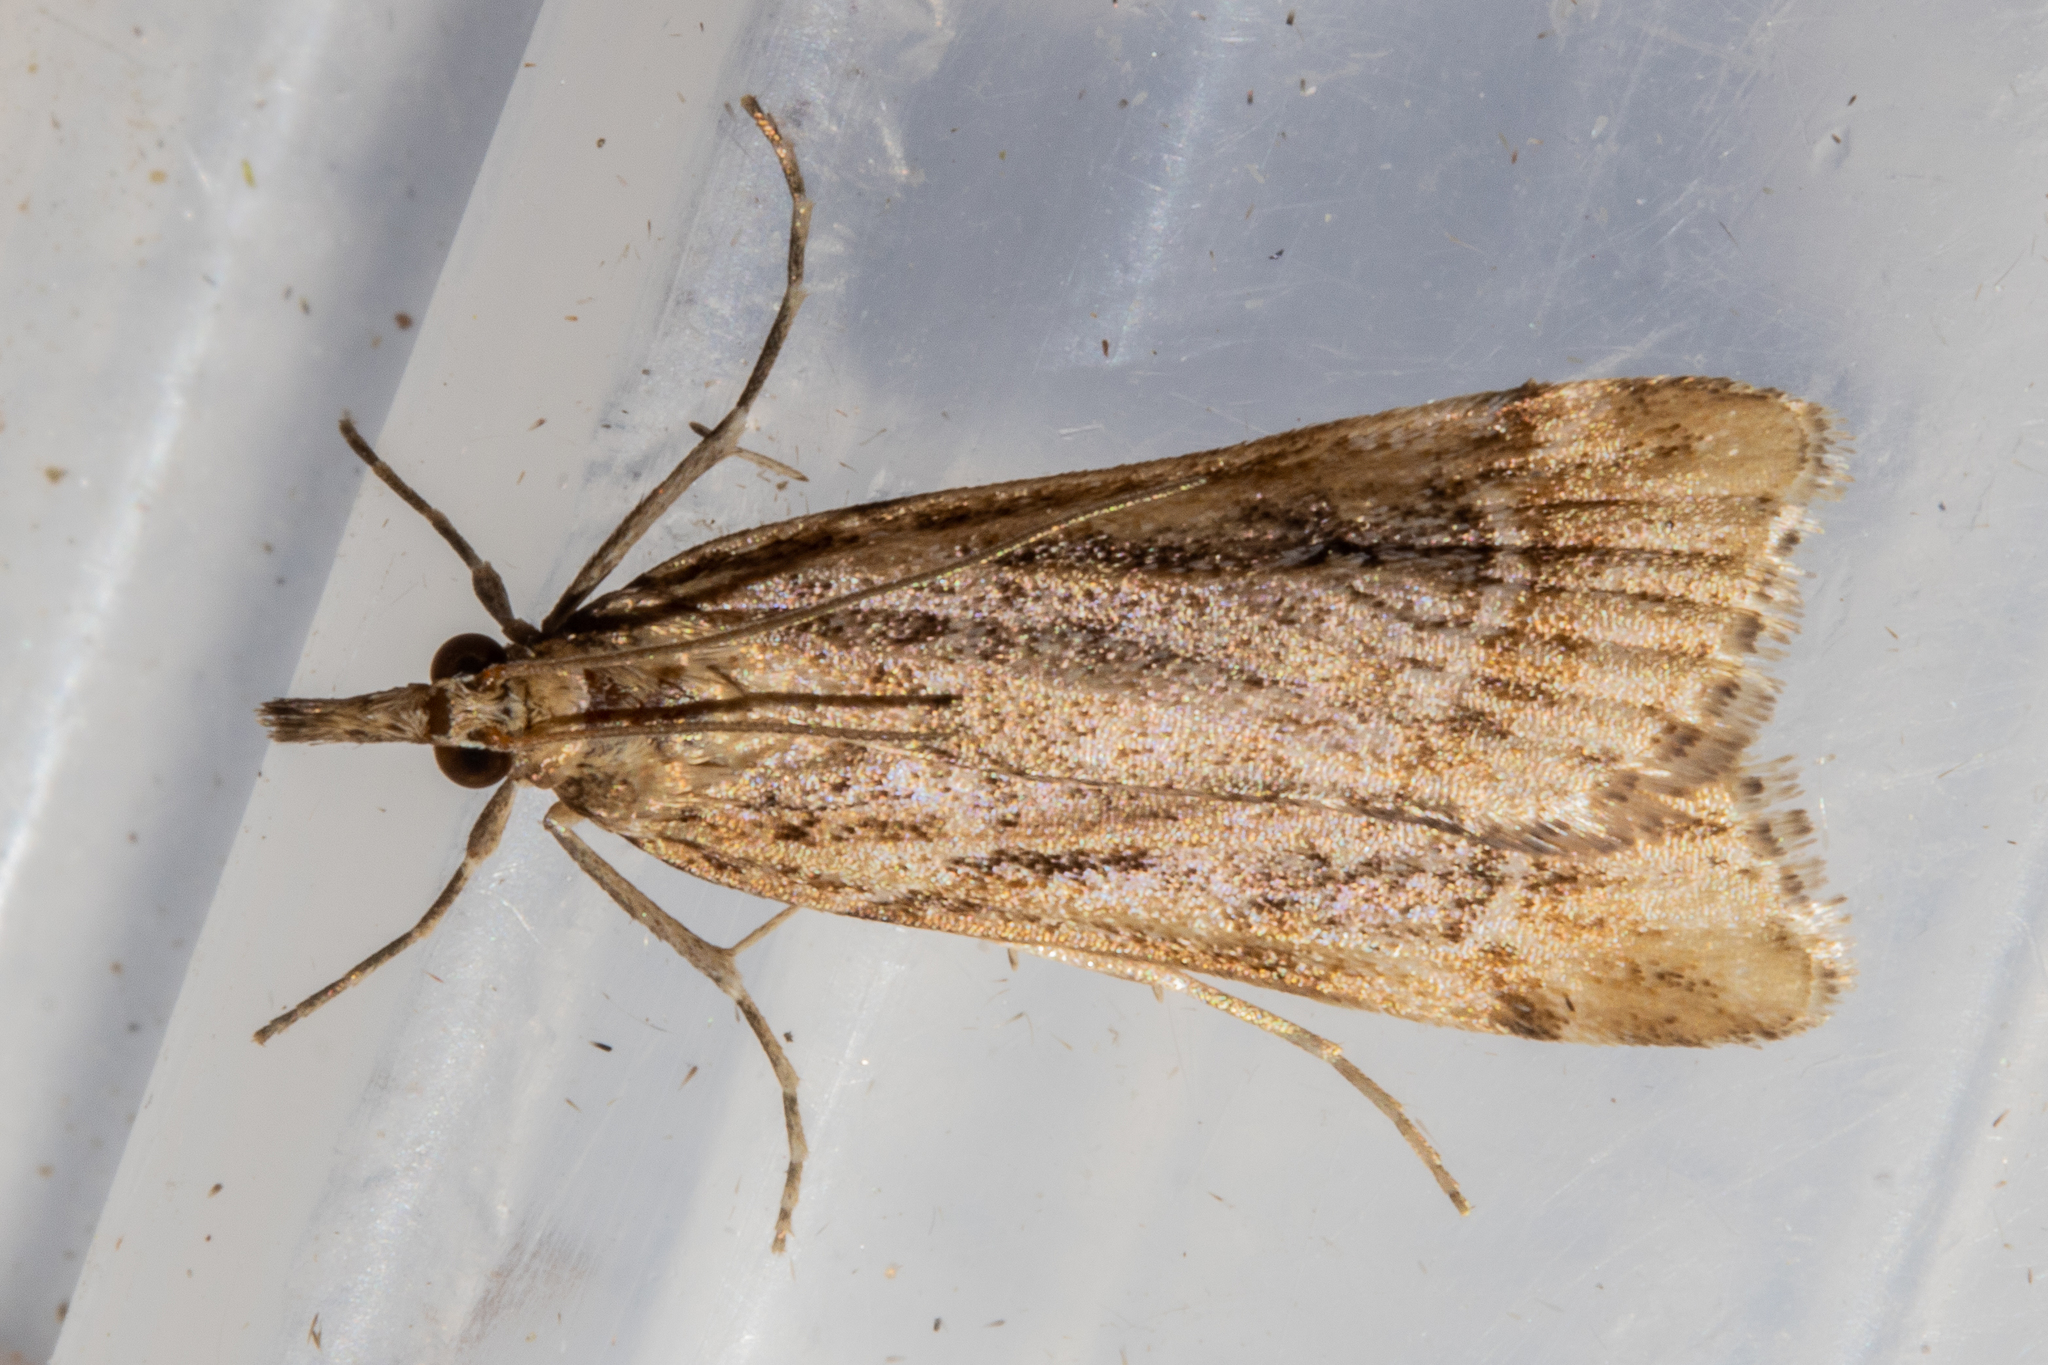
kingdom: Animalia
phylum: Arthropoda
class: Insecta
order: Lepidoptera
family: Crambidae
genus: Eudonia
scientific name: Eudonia chalara
